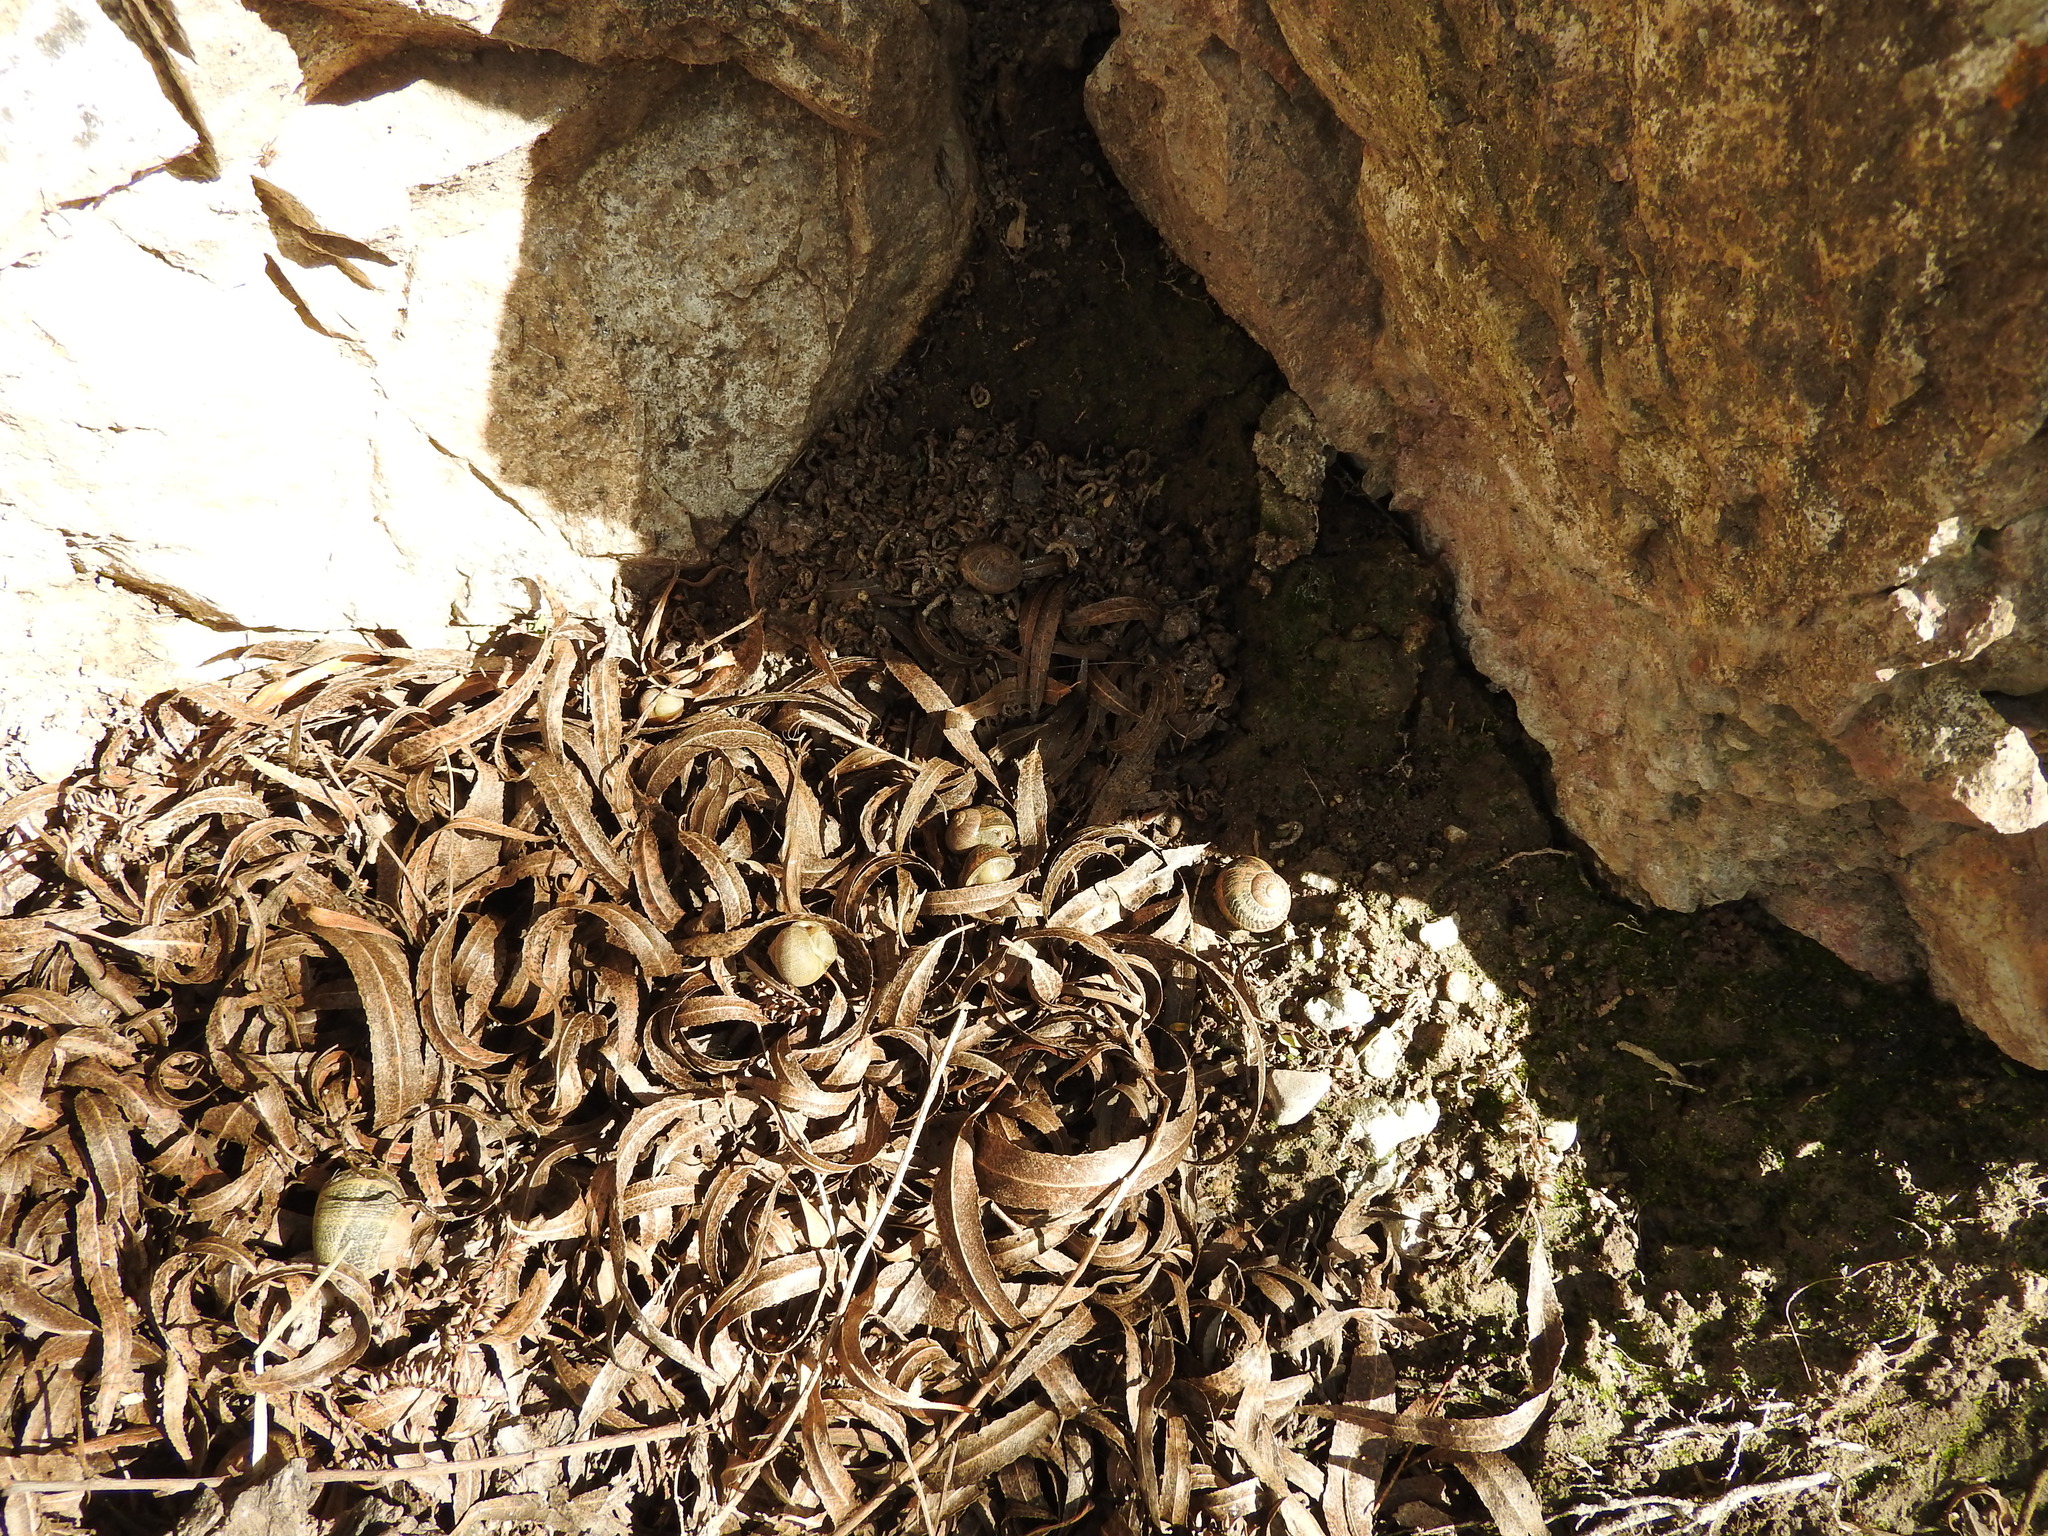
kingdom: Animalia
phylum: Mollusca
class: Gastropoda
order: Stylommatophora
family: Helicidae
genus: Cornu
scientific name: Cornu aspersum
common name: Brown garden snail
